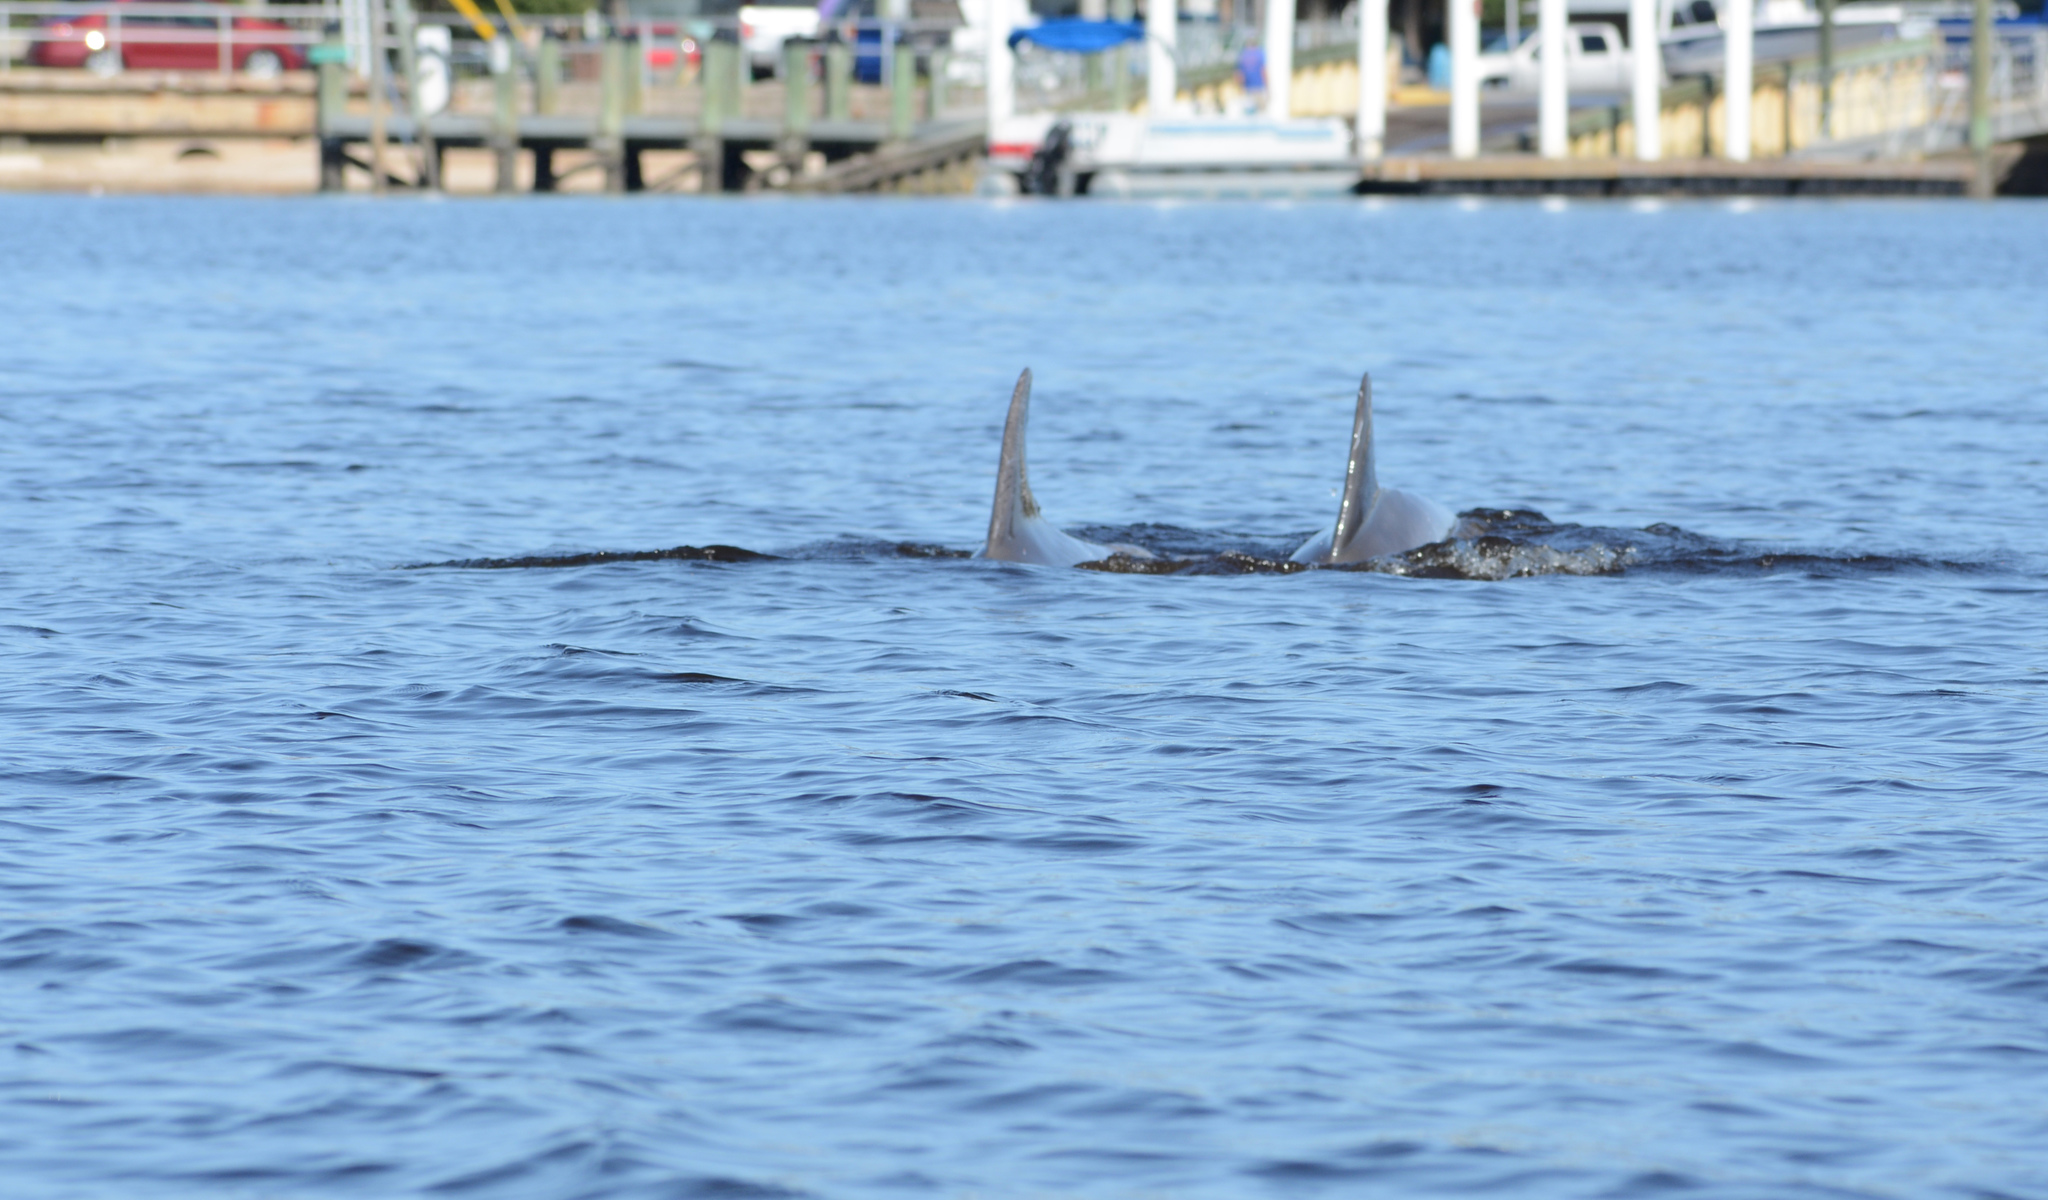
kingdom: Animalia
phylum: Chordata
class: Mammalia
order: Cetacea
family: Delphinidae
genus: Tursiops
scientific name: Tursiops truncatus
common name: Bottlenose dolphin
